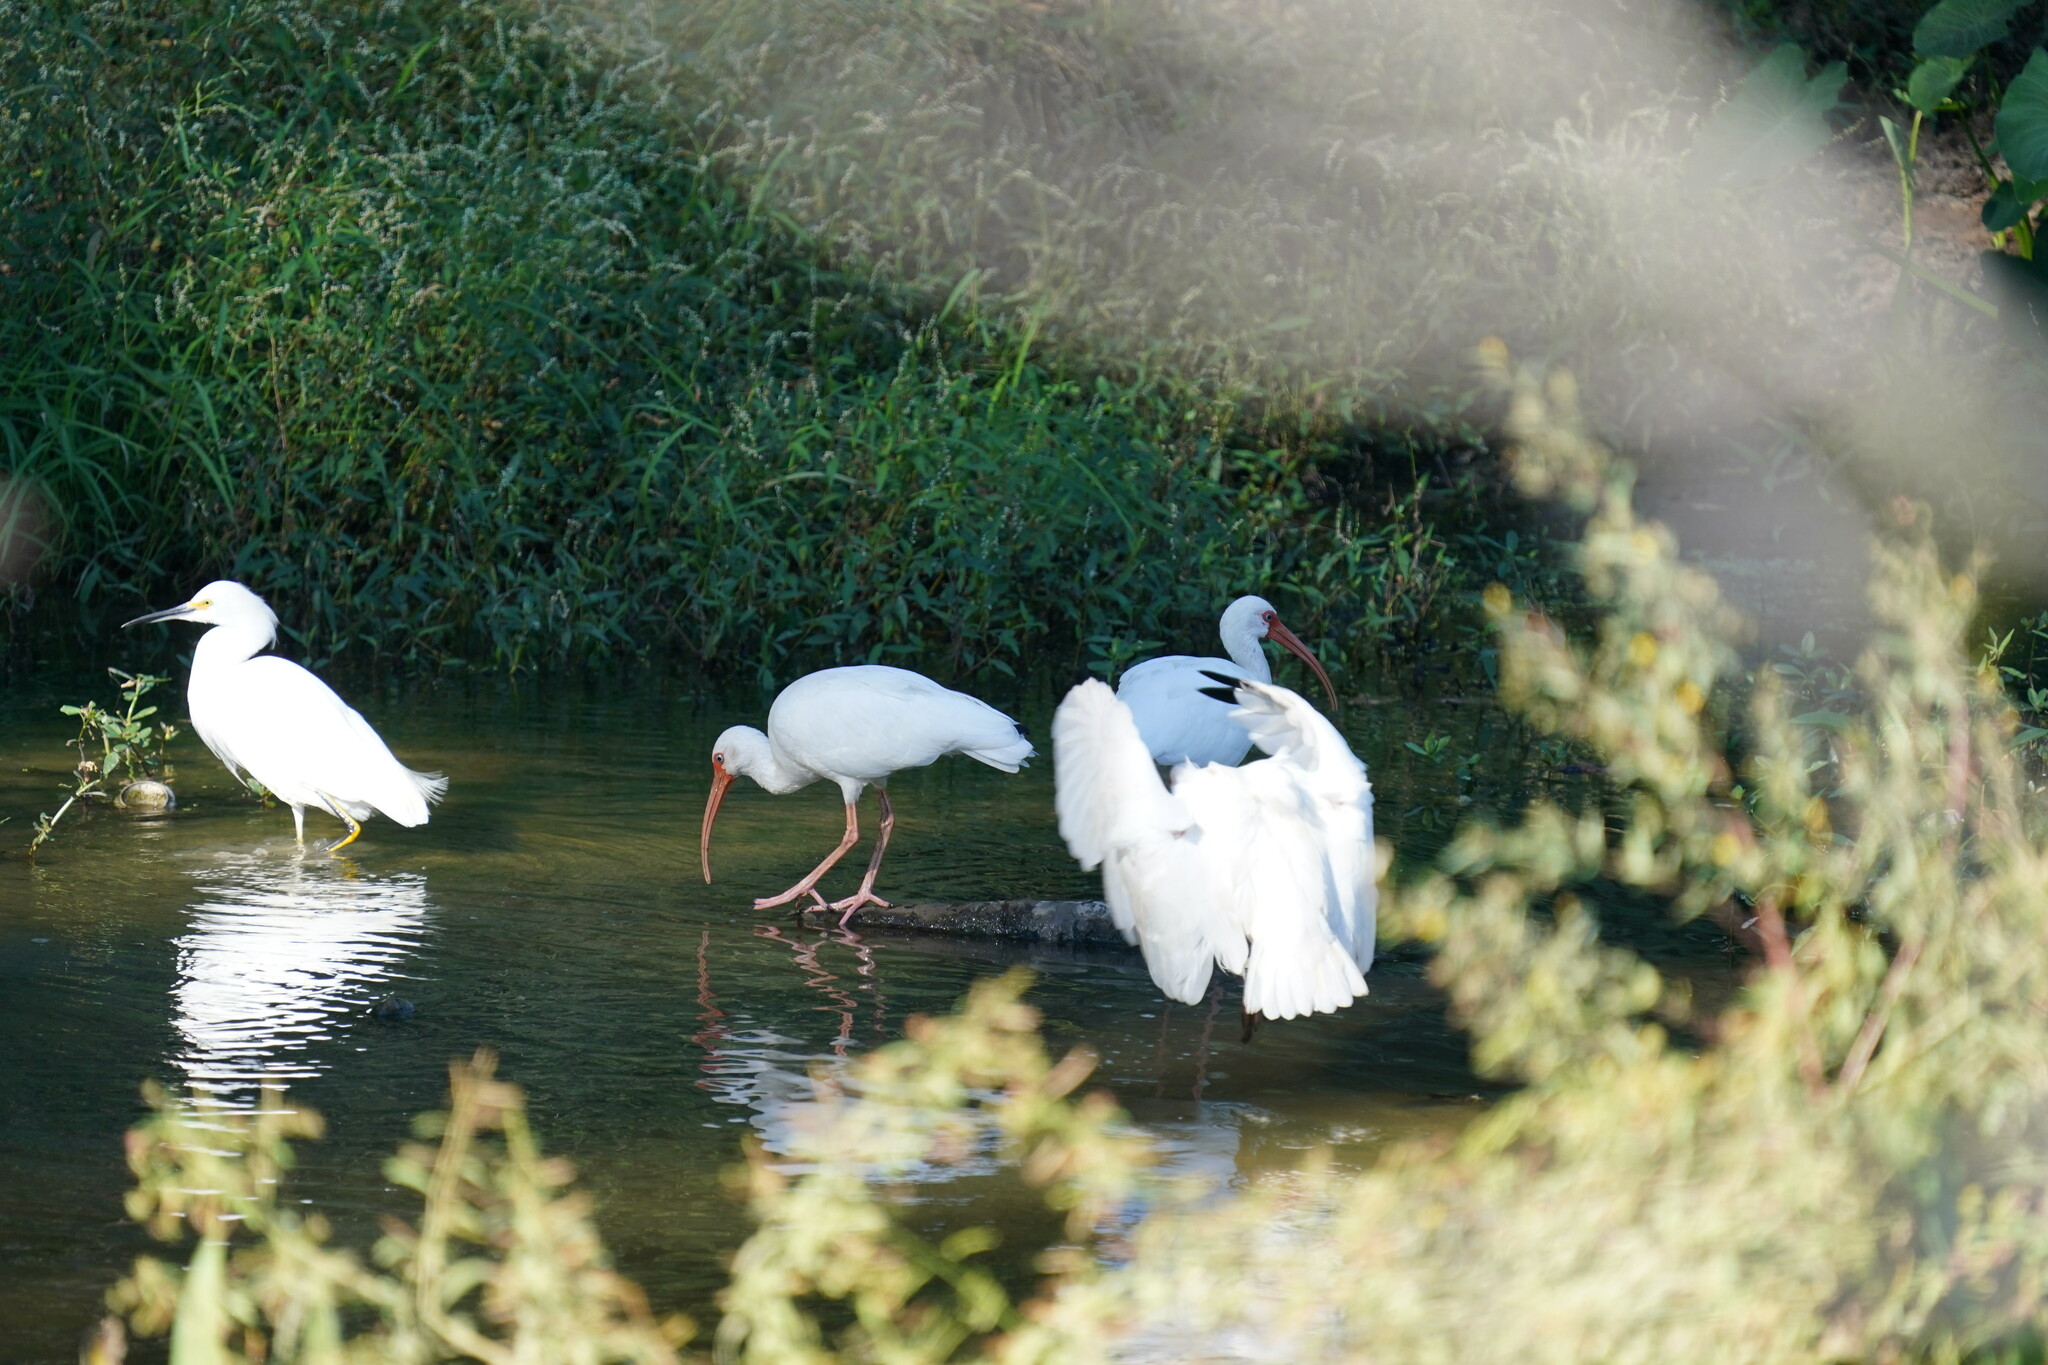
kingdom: Animalia
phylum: Chordata
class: Aves
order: Pelecaniformes
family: Threskiornithidae
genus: Eudocimus
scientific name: Eudocimus albus
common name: White ibis
